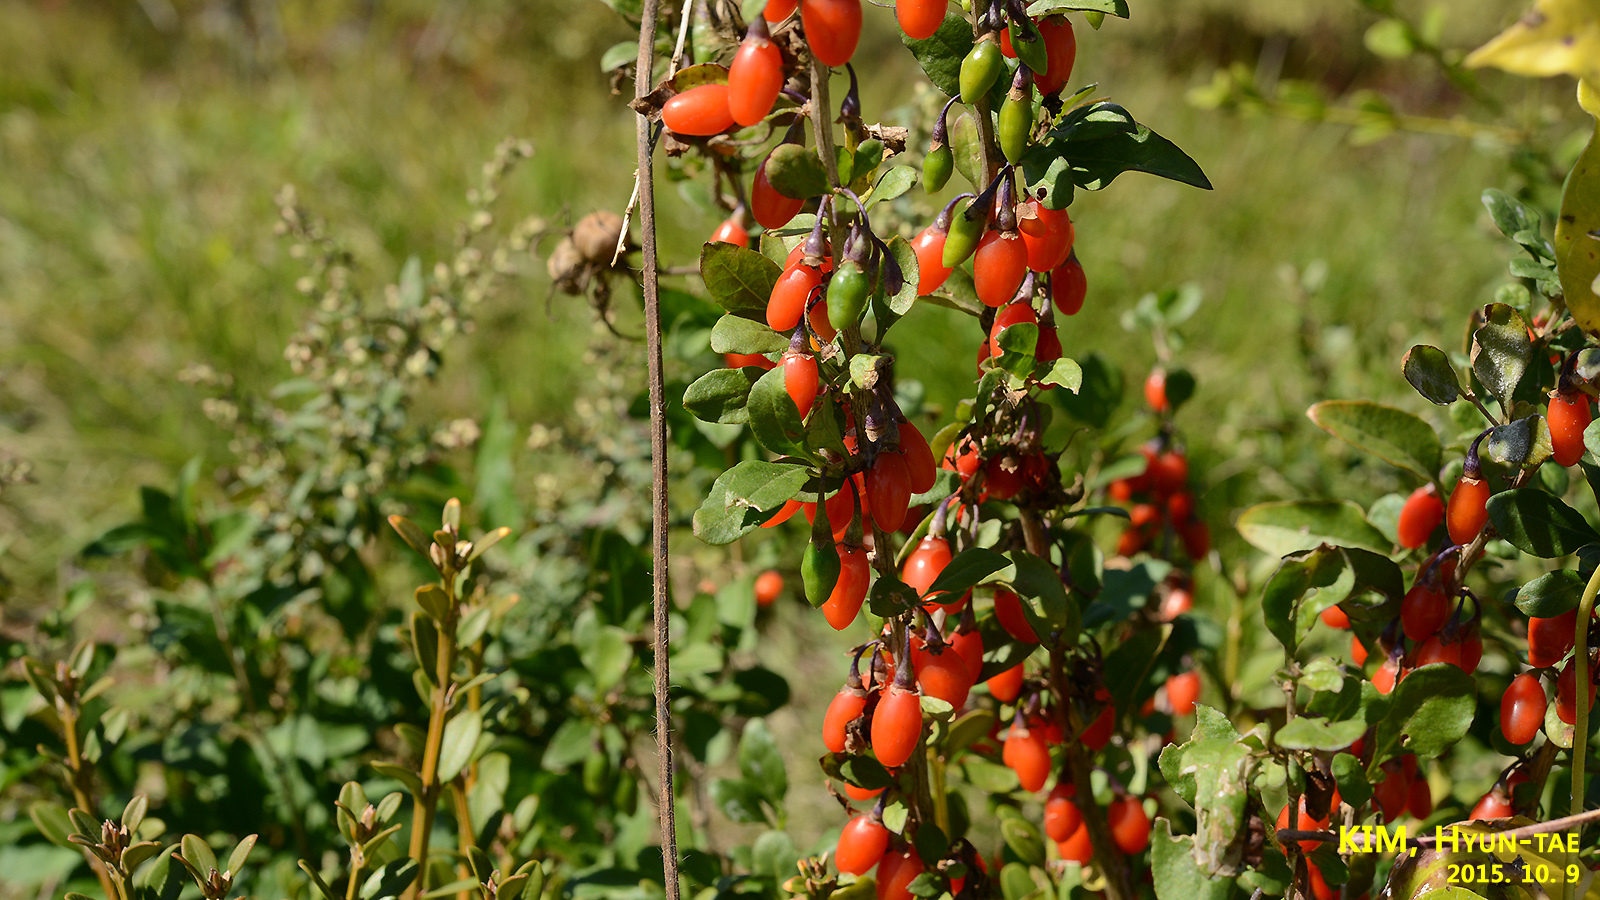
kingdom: Plantae
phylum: Tracheophyta
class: Magnoliopsida
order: Solanales
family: Solanaceae
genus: Lycium
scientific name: Lycium chinense
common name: Chinese teaplant
